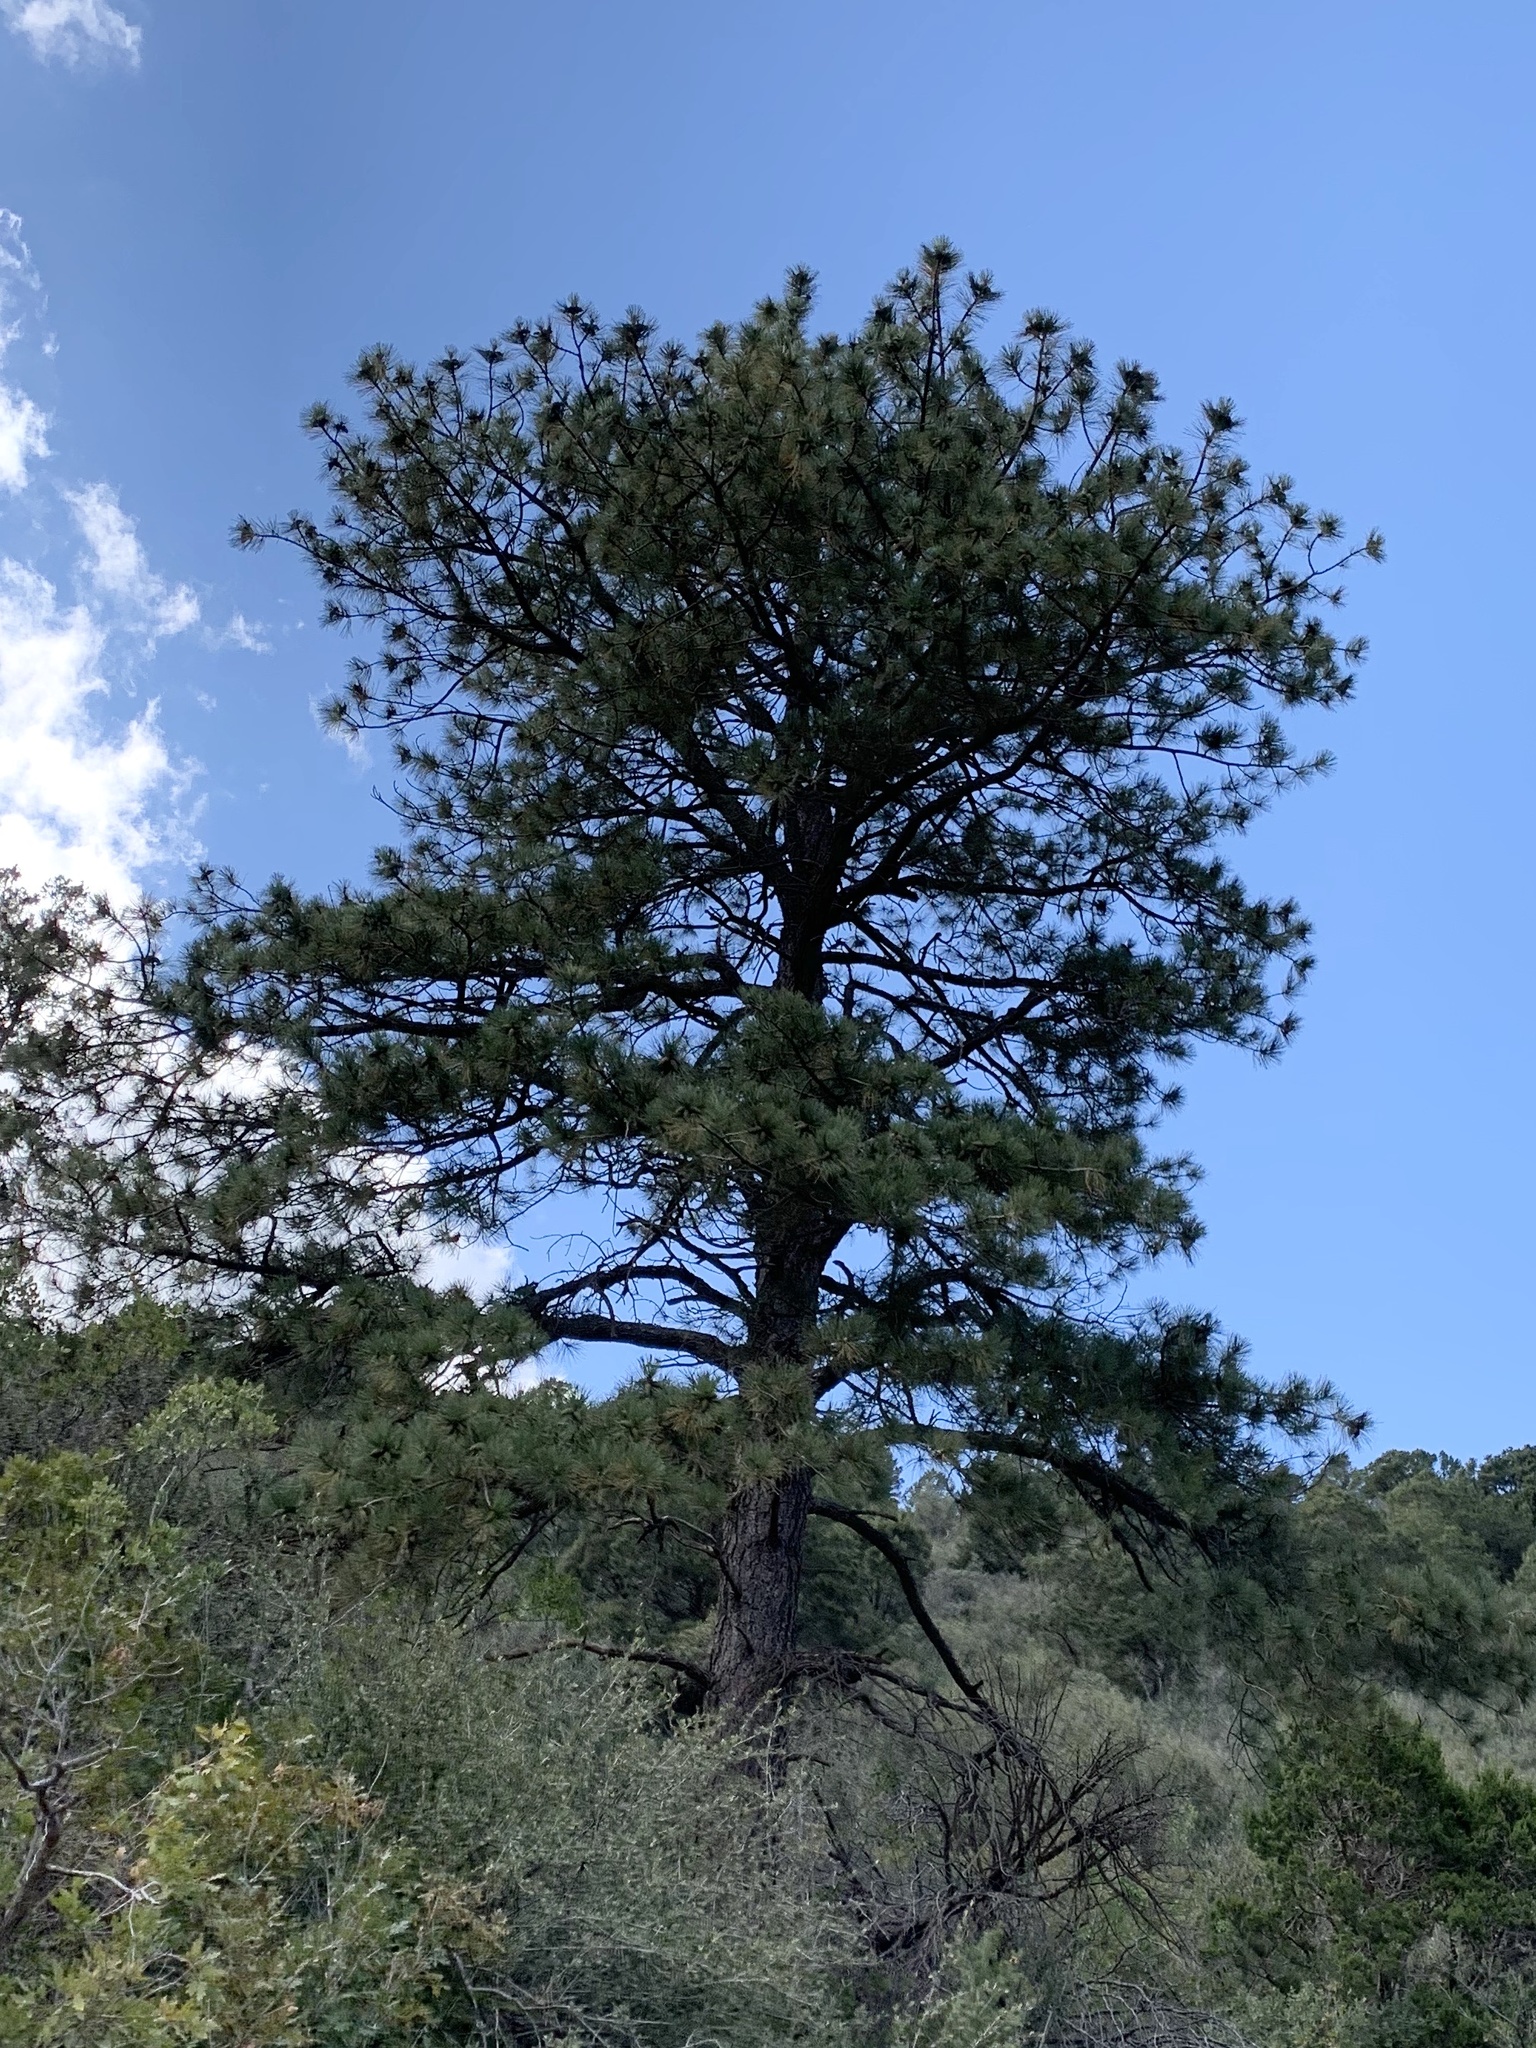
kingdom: Plantae
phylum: Tracheophyta
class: Pinopsida
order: Pinales
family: Pinaceae
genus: Pinus
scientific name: Pinus ponderosa
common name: Western yellow-pine
